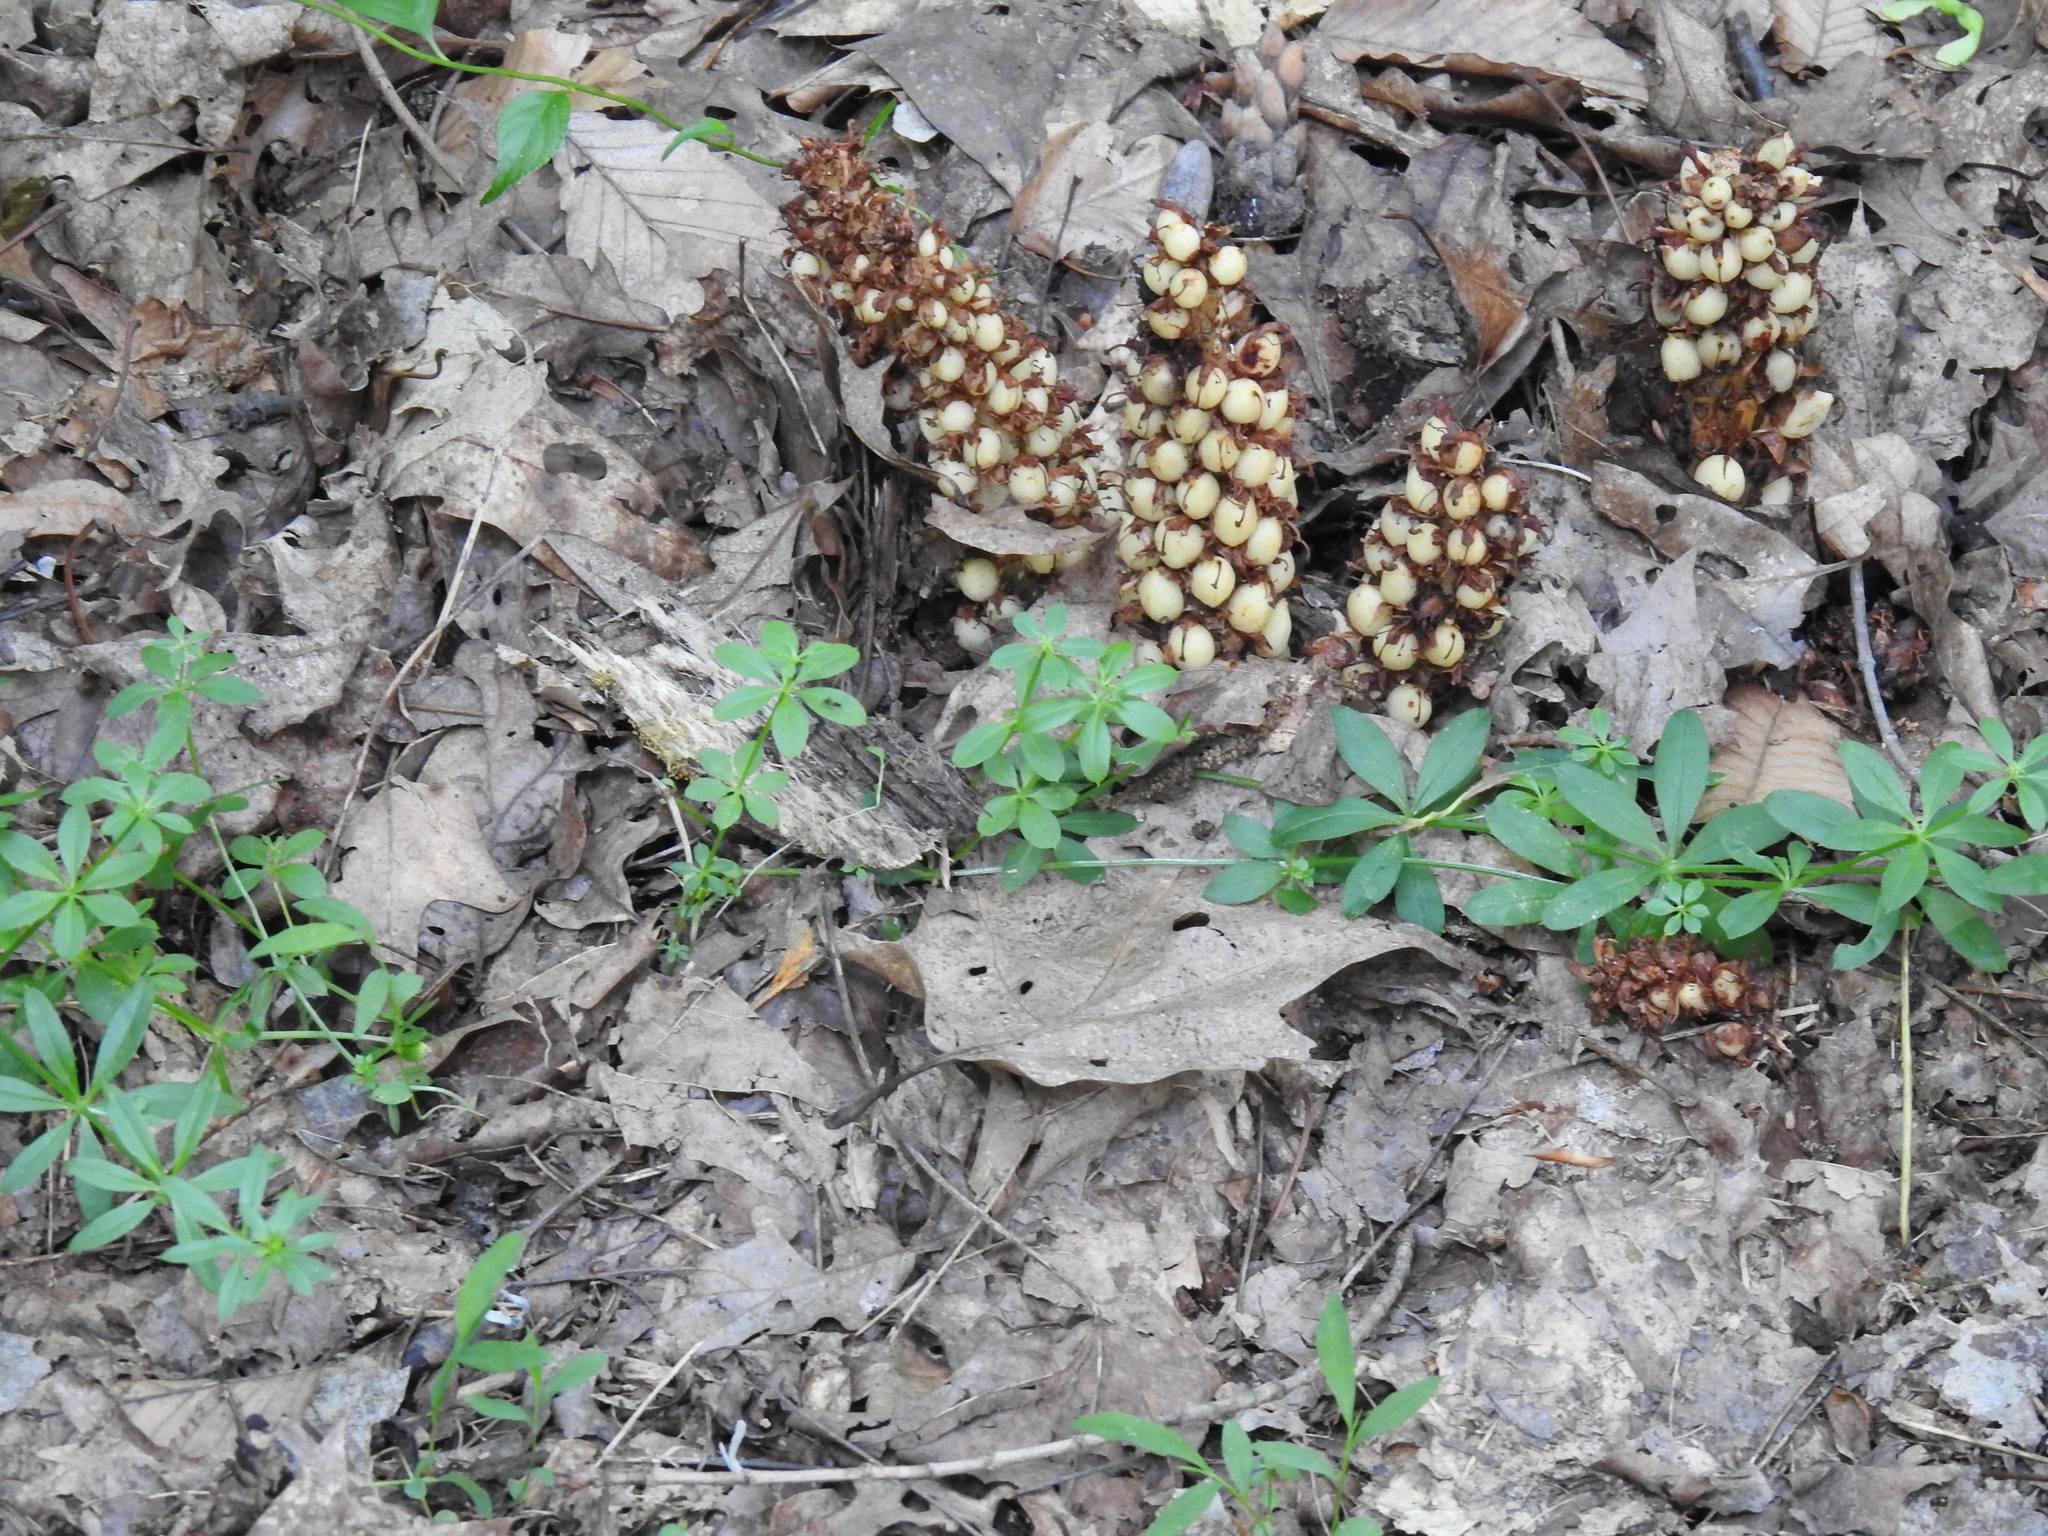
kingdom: Plantae
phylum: Tracheophyta
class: Magnoliopsida
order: Lamiales
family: Orobanchaceae
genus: Conopholis
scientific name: Conopholis americana
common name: American cancer-root
